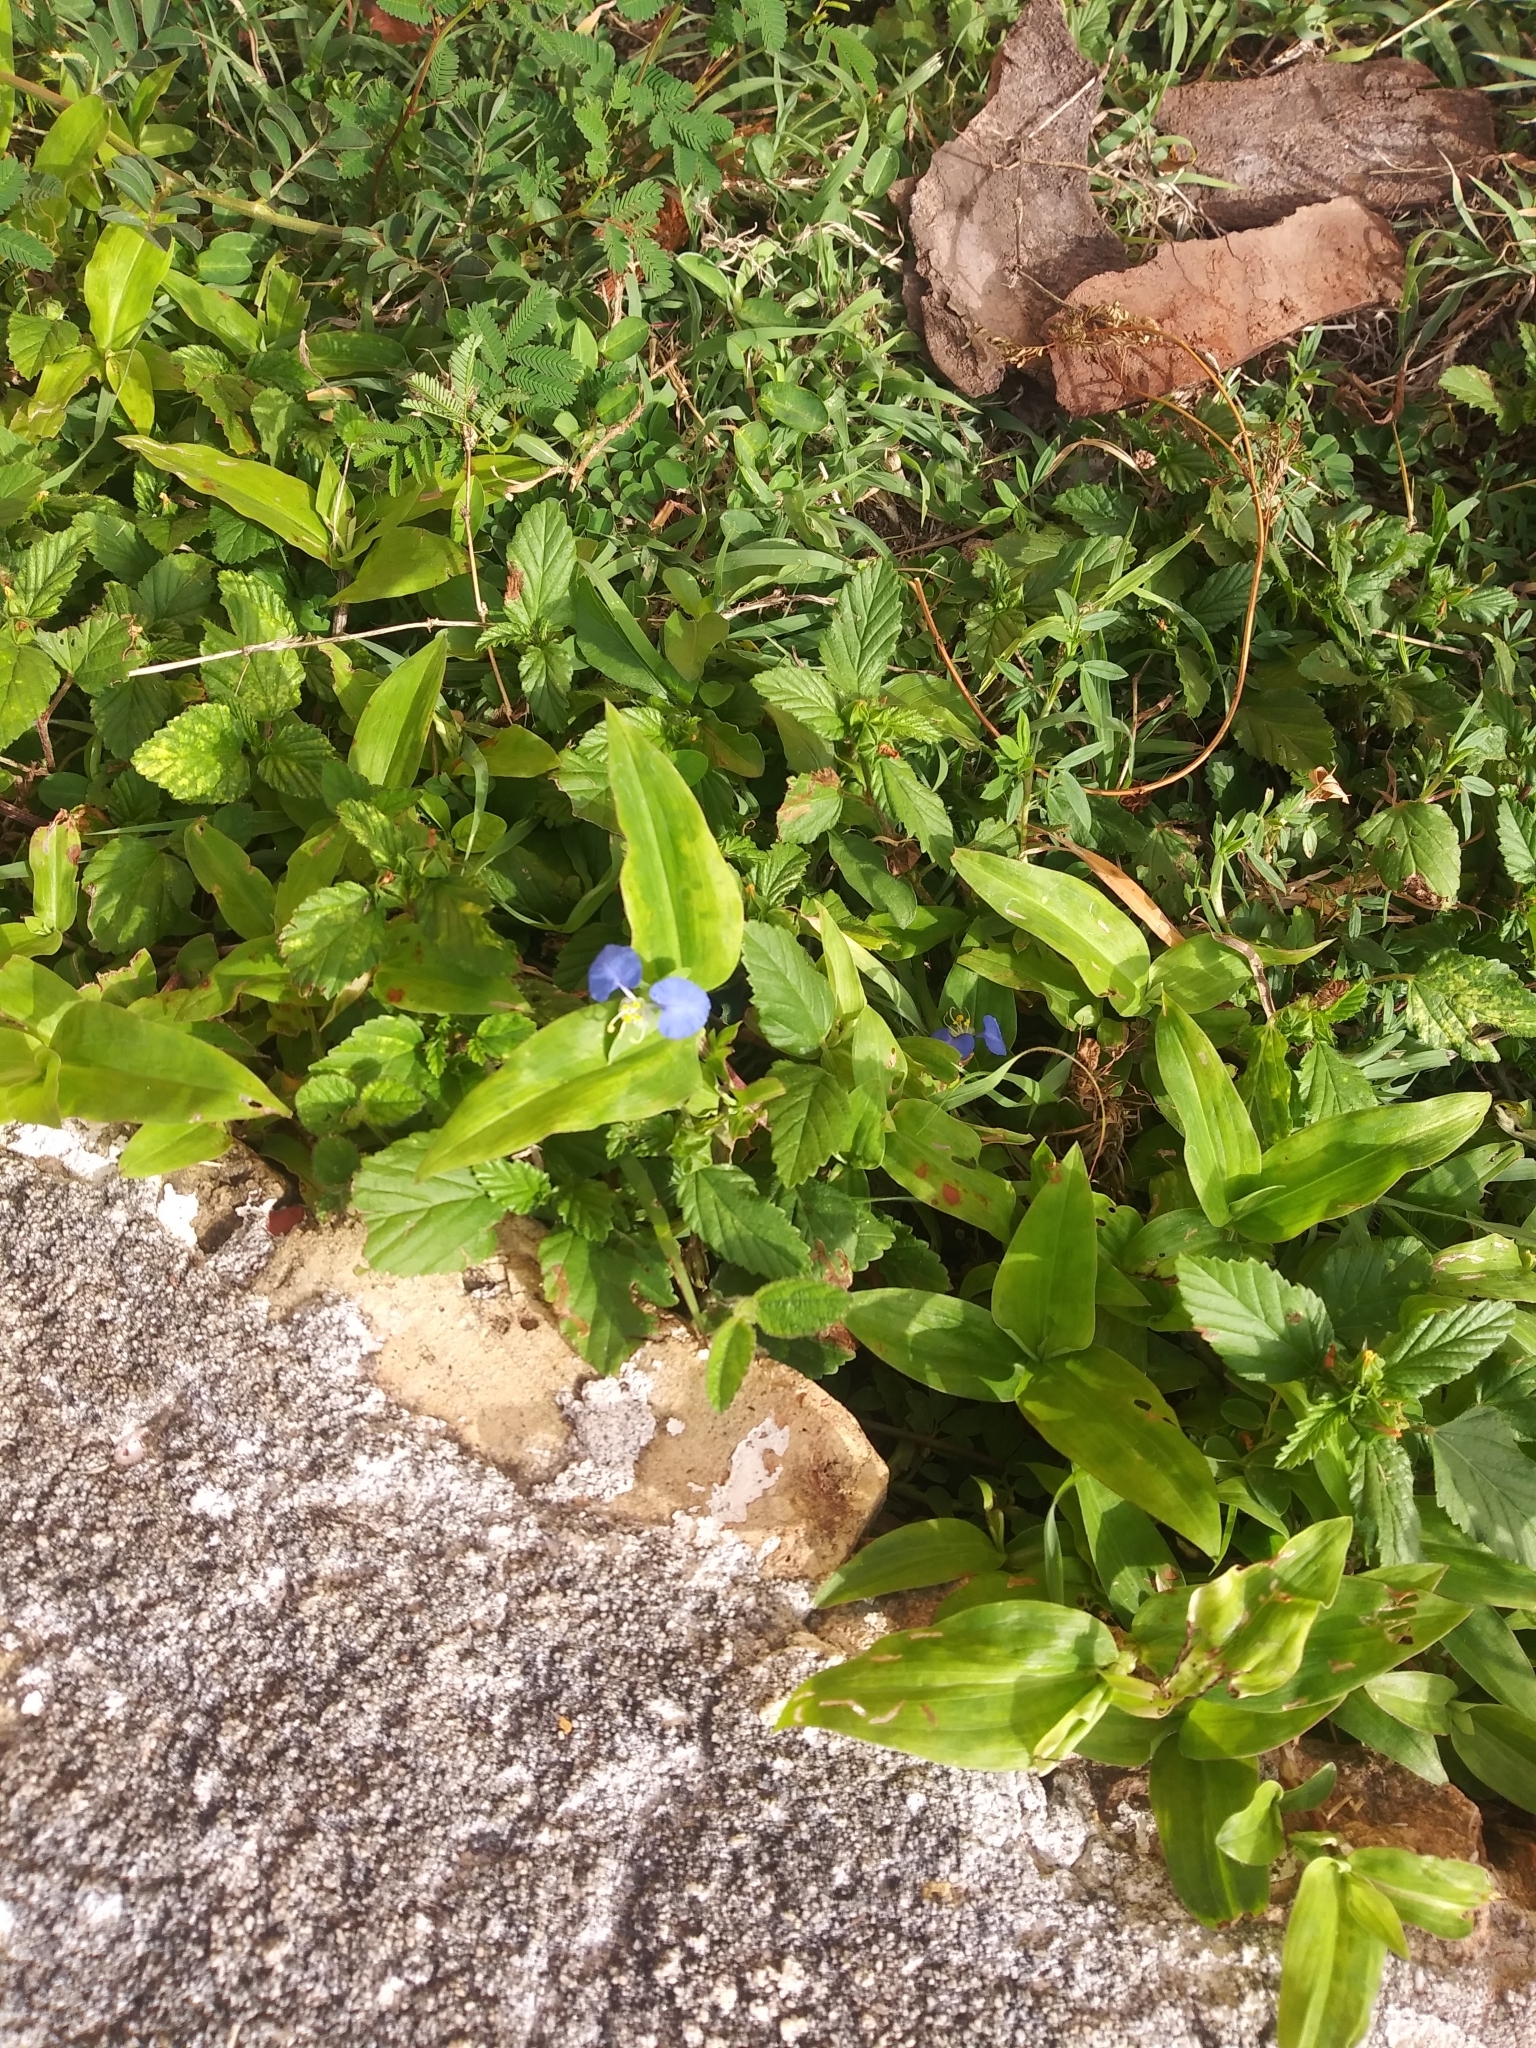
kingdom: Plantae
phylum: Tracheophyta
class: Liliopsida
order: Commelinales
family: Commelinaceae
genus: Commelina
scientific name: Commelina erecta
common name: Blousel blommetjie
